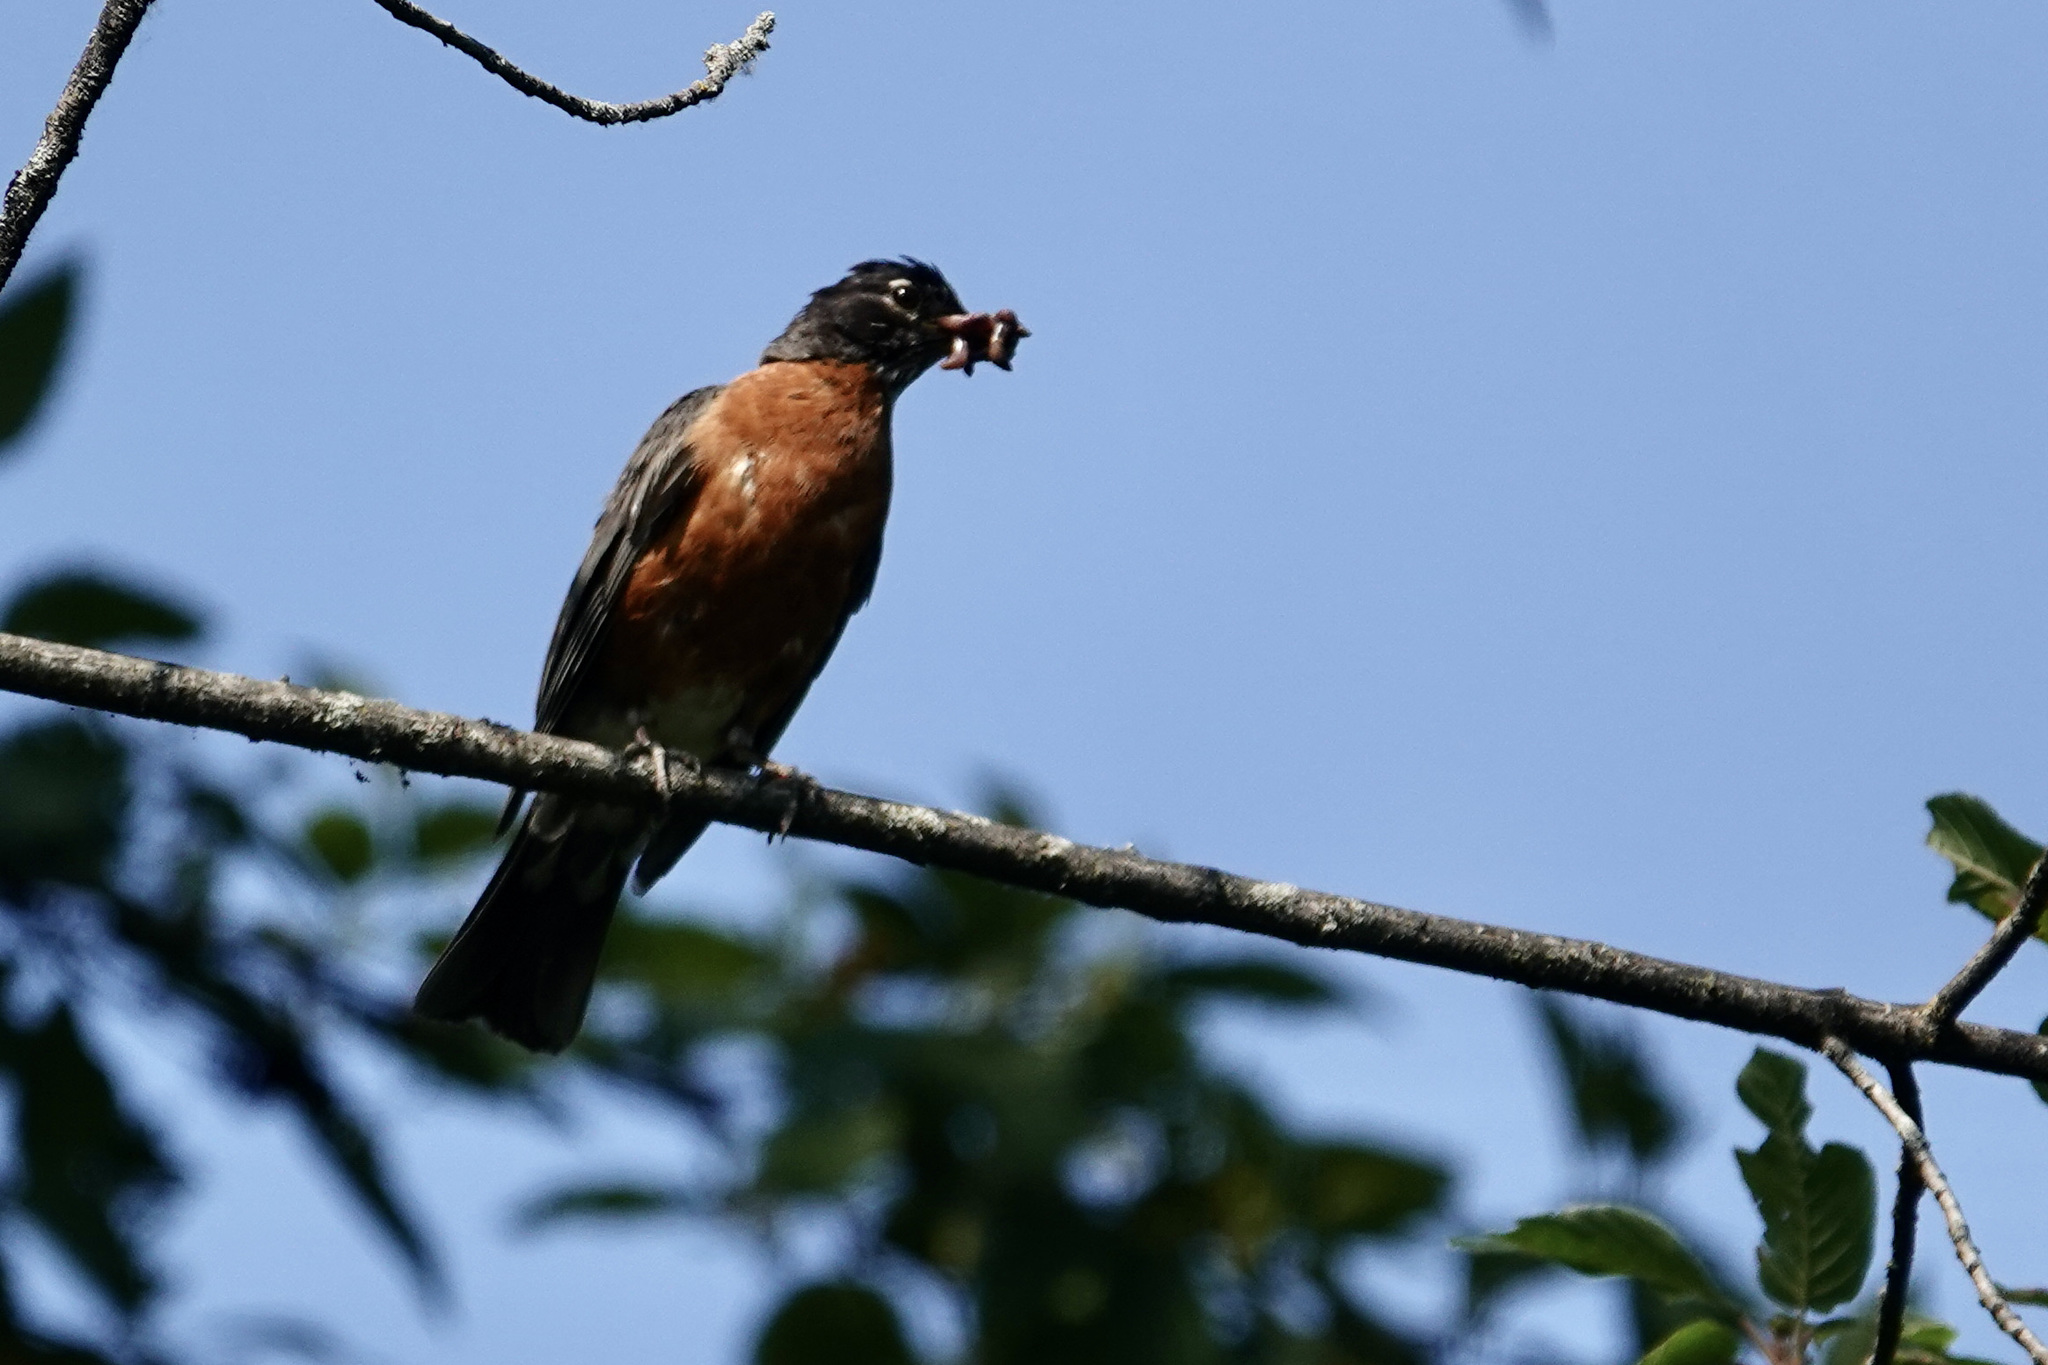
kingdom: Animalia
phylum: Chordata
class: Aves
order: Passeriformes
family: Turdidae
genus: Turdus
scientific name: Turdus migratorius
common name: American robin
